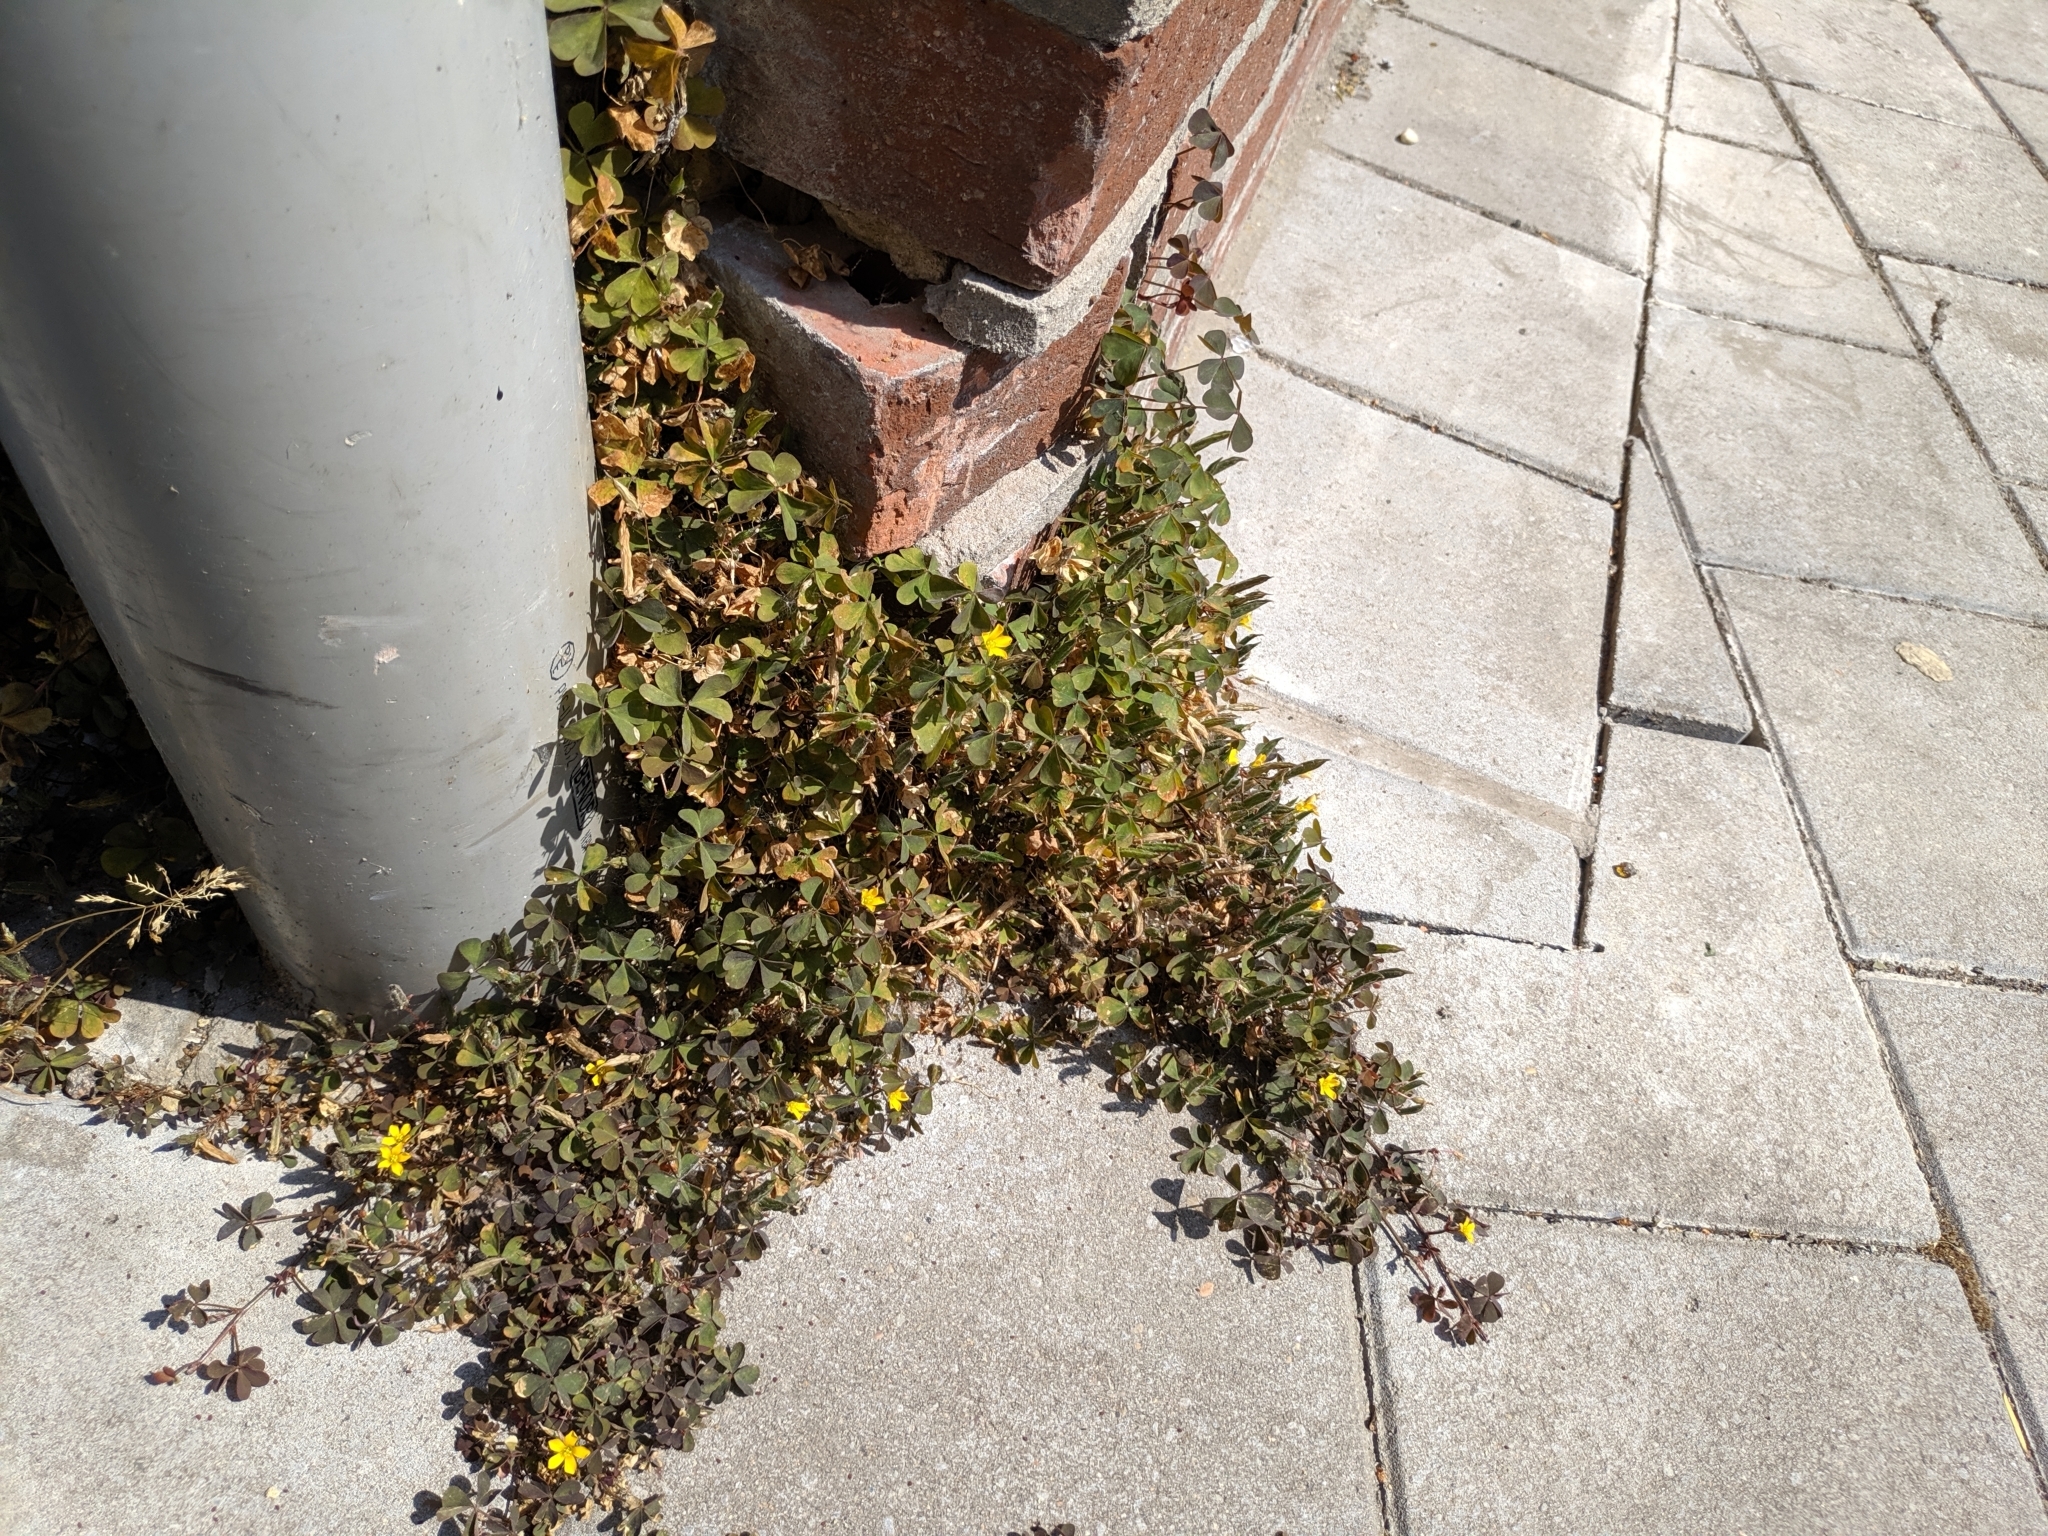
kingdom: Plantae
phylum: Tracheophyta
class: Magnoliopsida
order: Oxalidales
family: Oxalidaceae
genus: Oxalis
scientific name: Oxalis corniculata
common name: Procumbent yellow-sorrel
